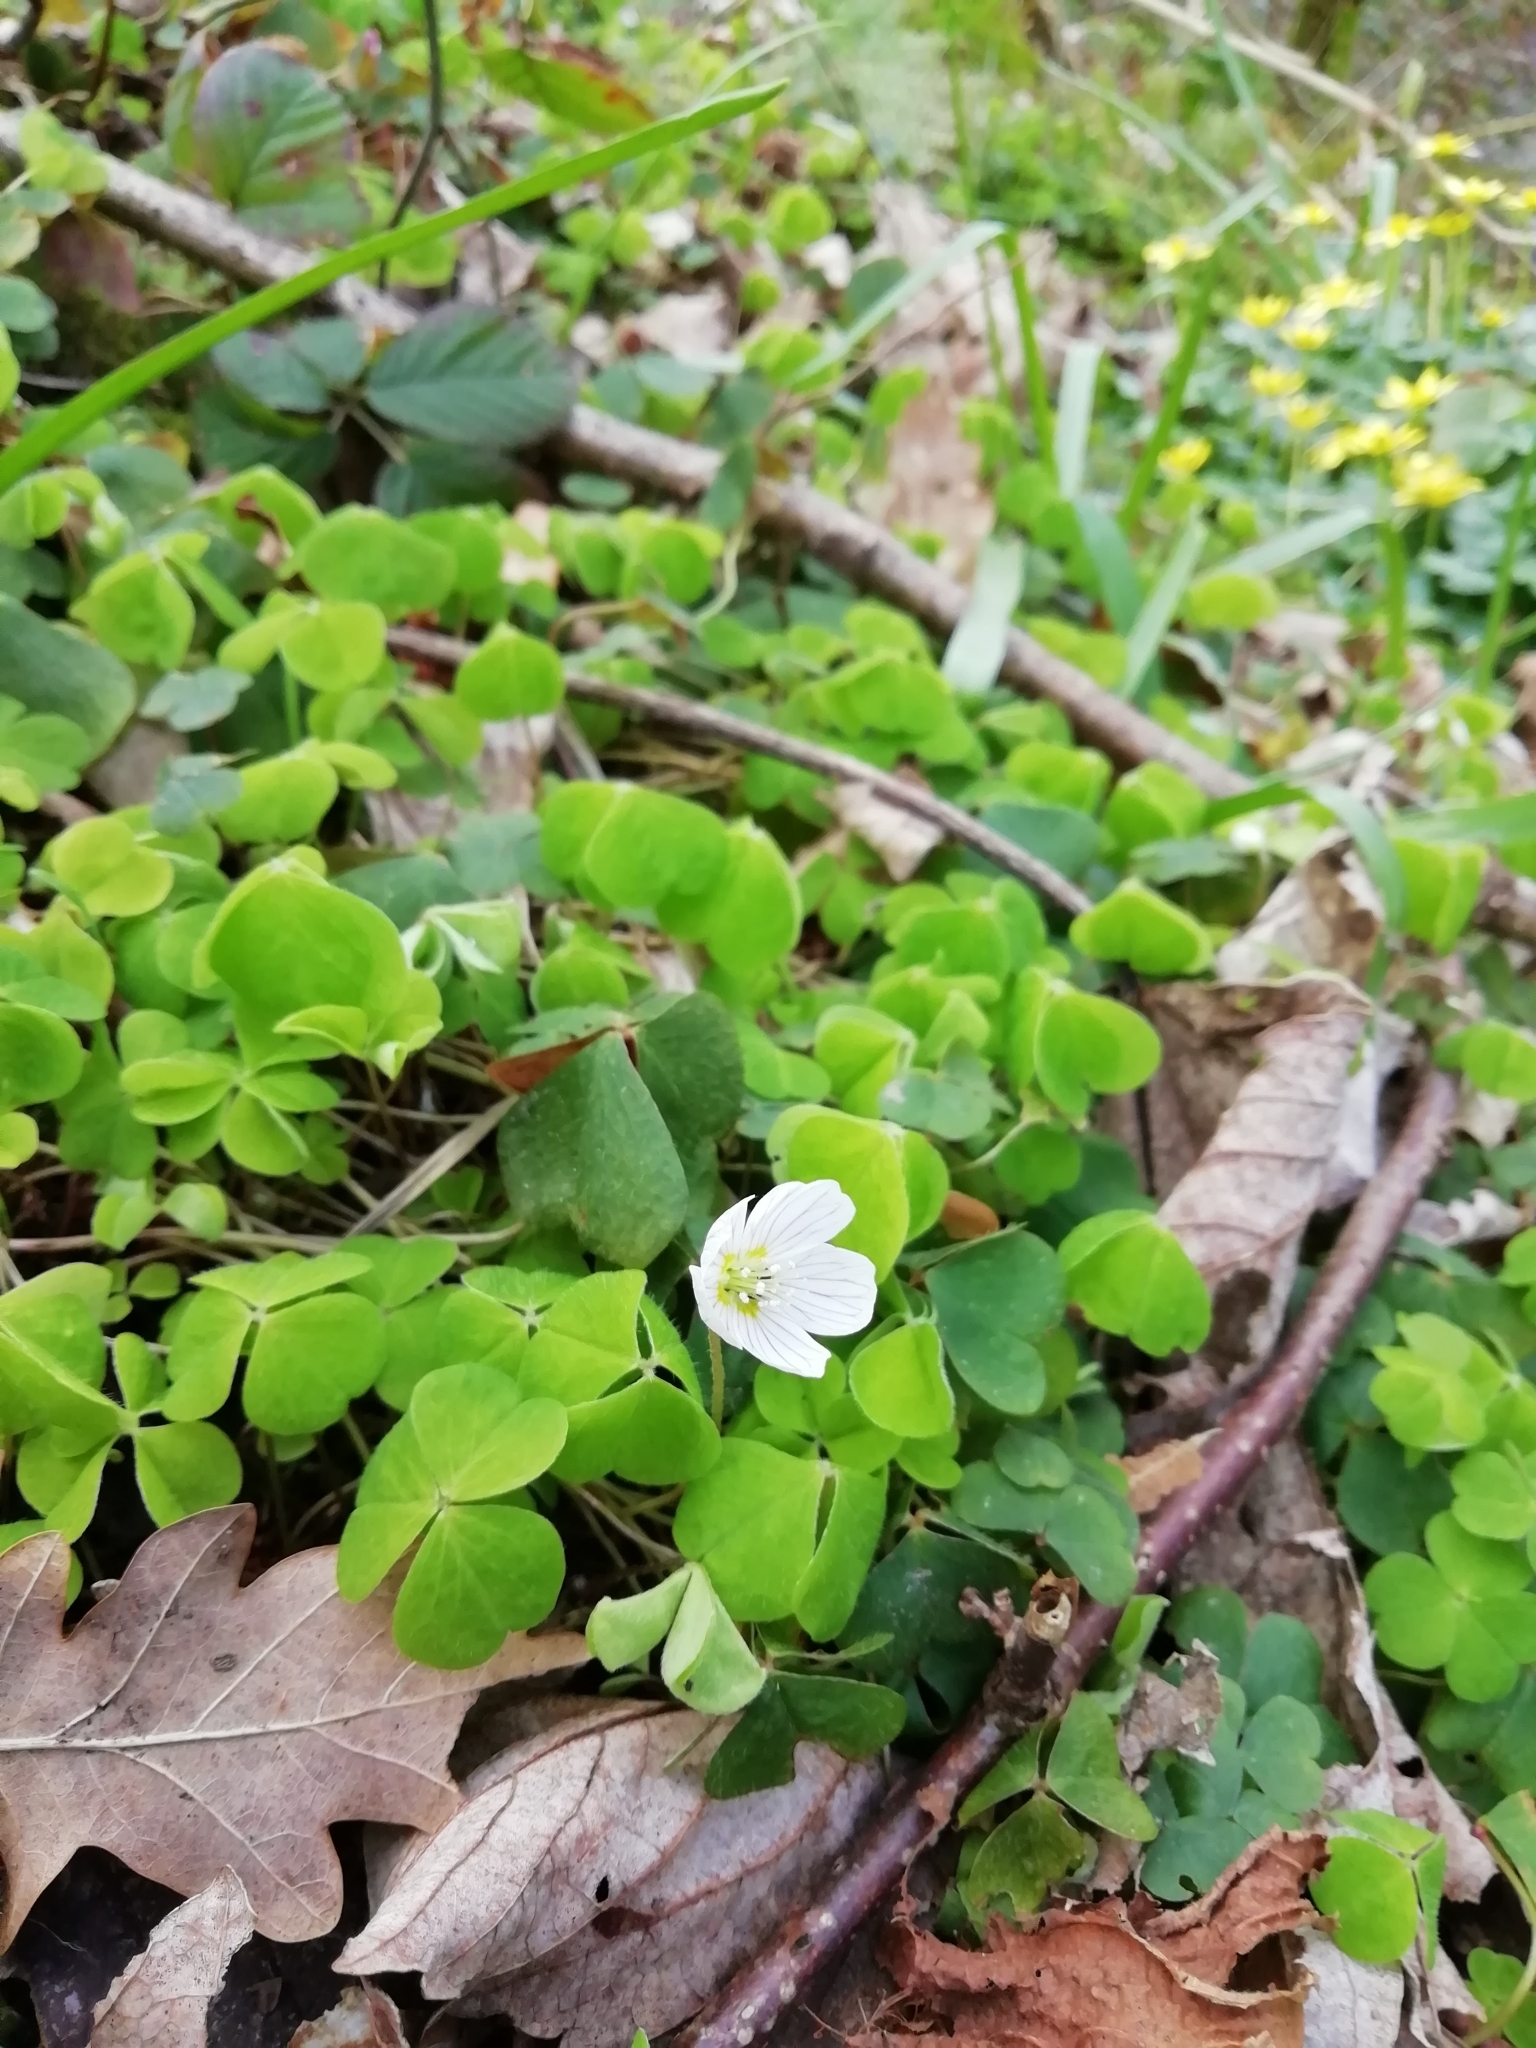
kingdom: Plantae
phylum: Tracheophyta
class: Magnoliopsida
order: Oxalidales
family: Oxalidaceae
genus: Oxalis
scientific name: Oxalis acetosella
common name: Wood-sorrel
